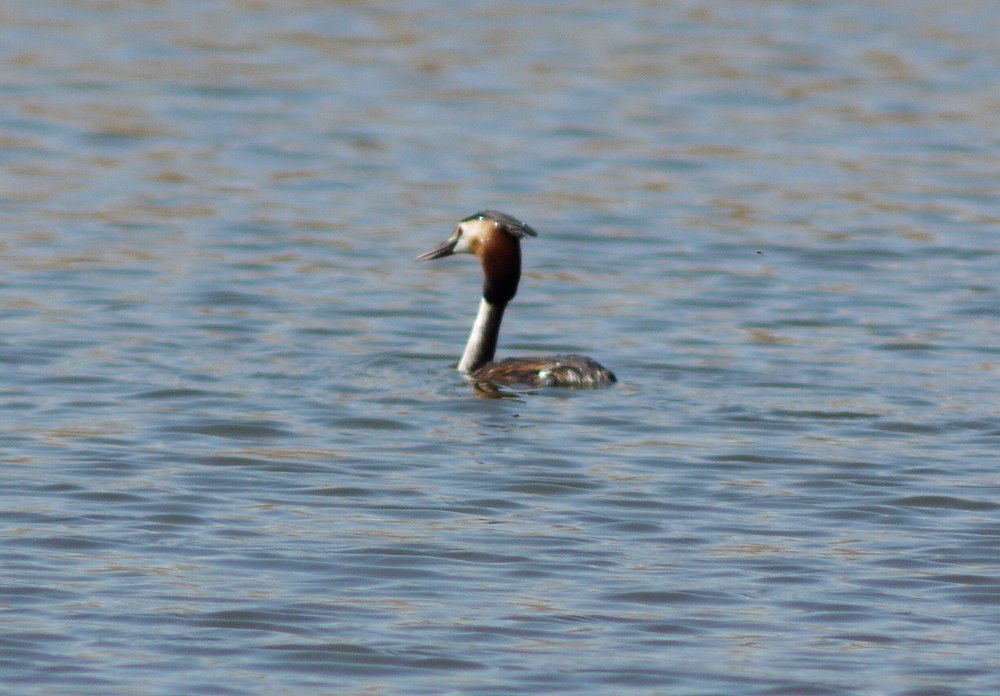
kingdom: Animalia
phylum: Chordata
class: Aves
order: Podicipediformes
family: Podicipedidae
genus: Podiceps
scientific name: Podiceps cristatus
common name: Great crested grebe
